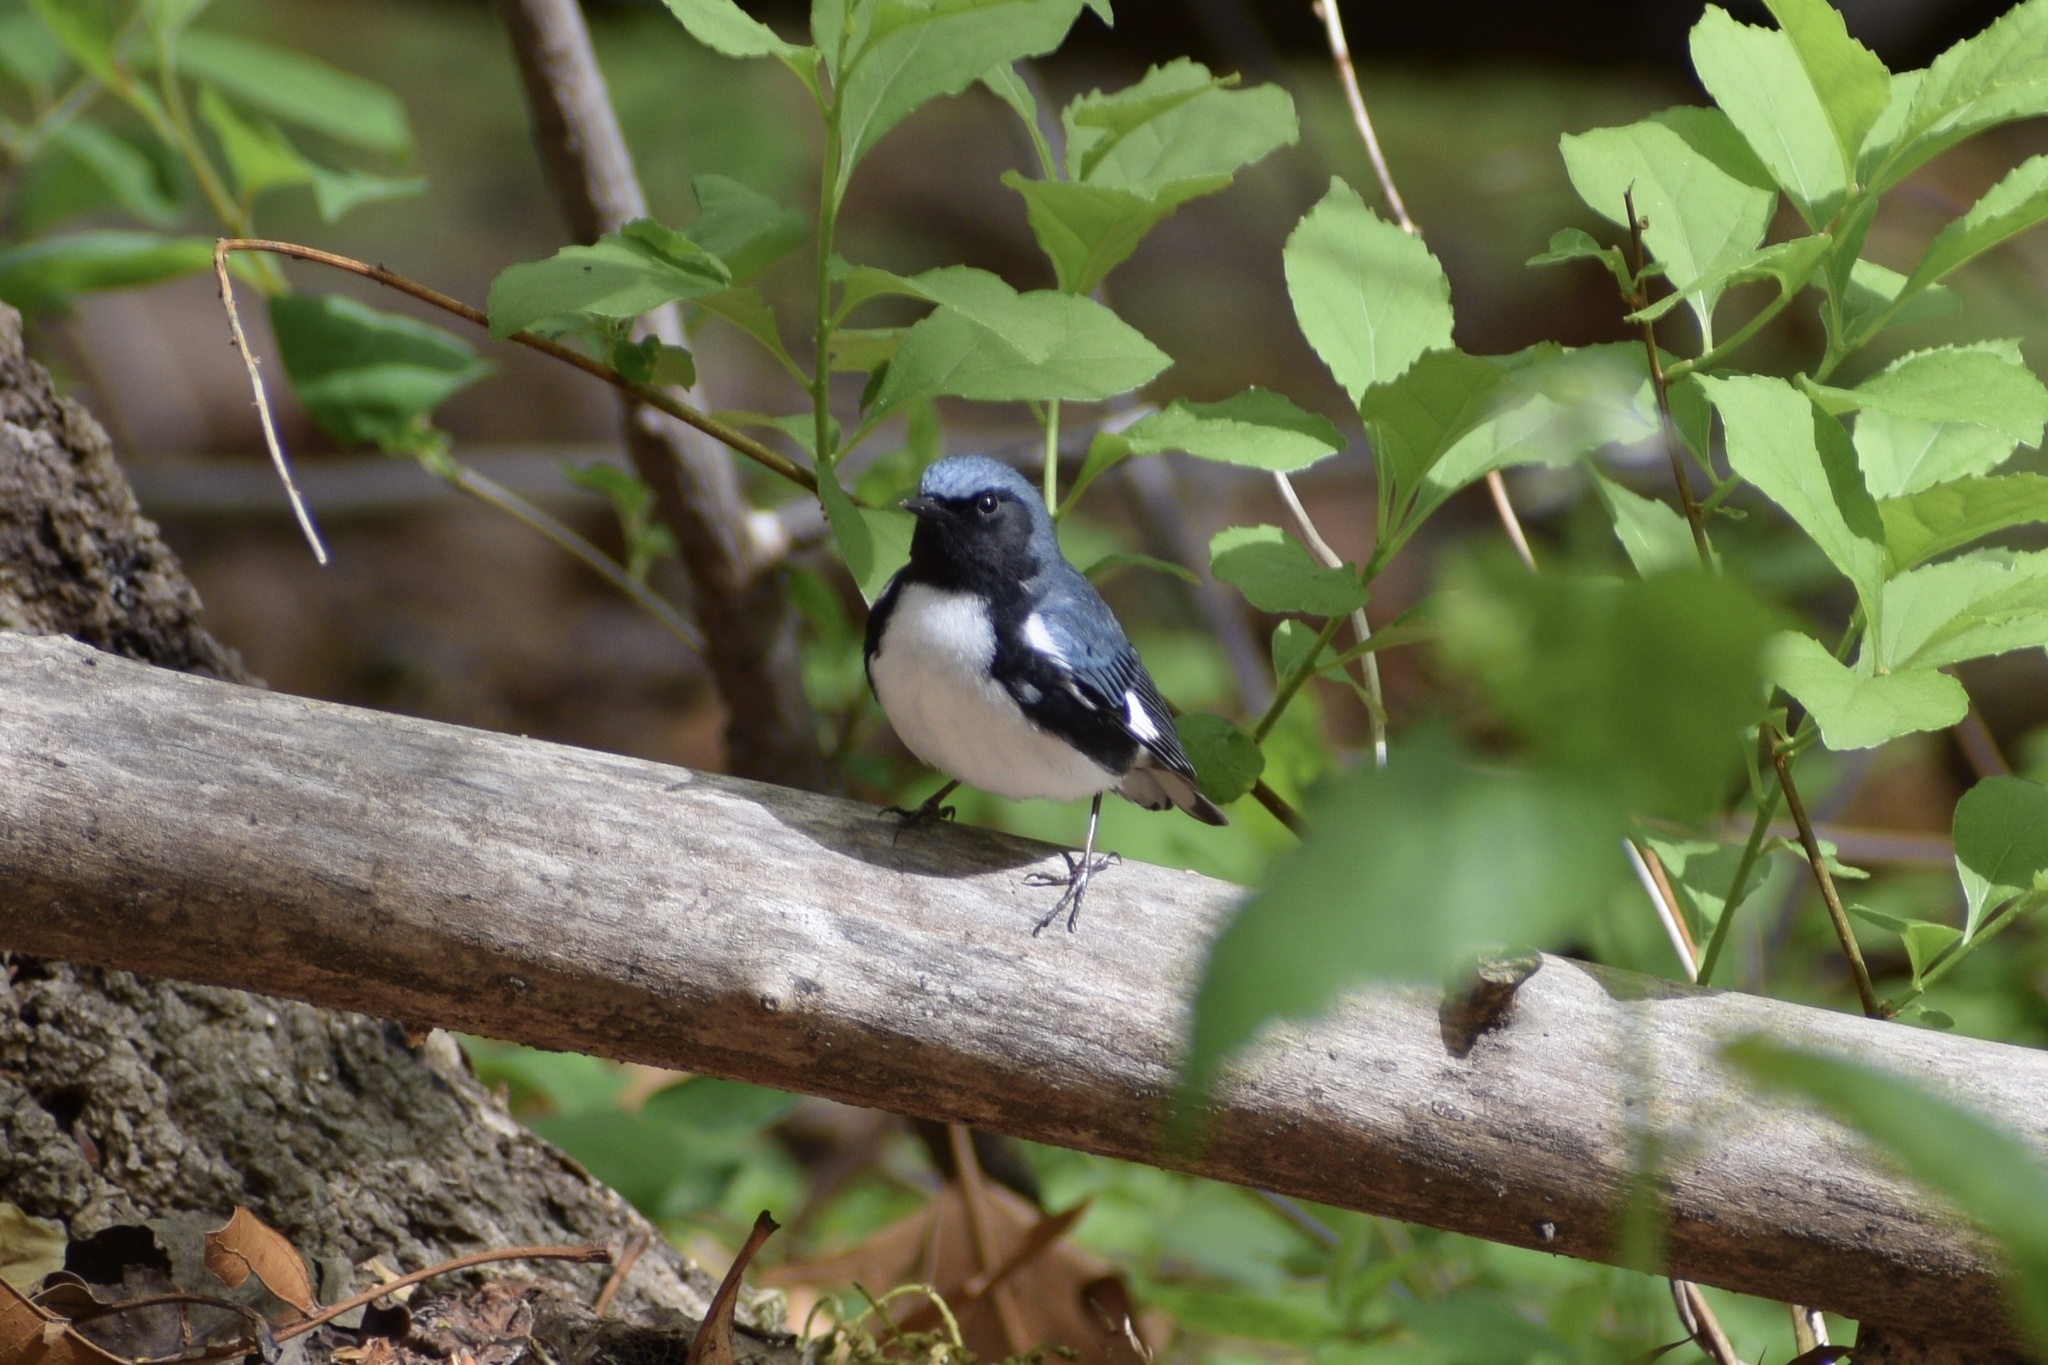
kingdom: Animalia
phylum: Chordata
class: Aves
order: Passeriformes
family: Parulidae
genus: Setophaga
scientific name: Setophaga caerulescens
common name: Black-throated blue warbler
